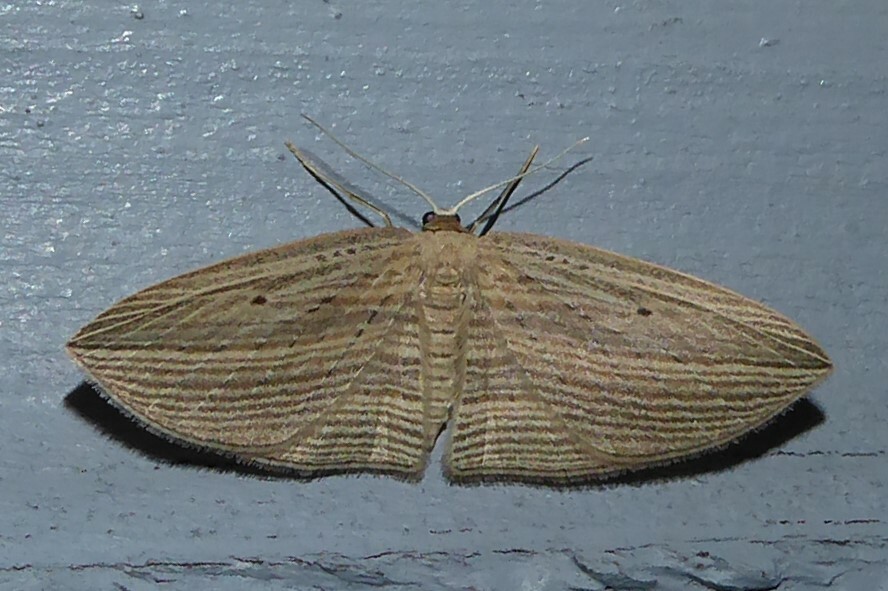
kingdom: Animalia
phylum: Arthropoda
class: Insecta
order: Lepidoptera
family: Geometridae
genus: Epiphryne
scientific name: Epiphryne verriculata
